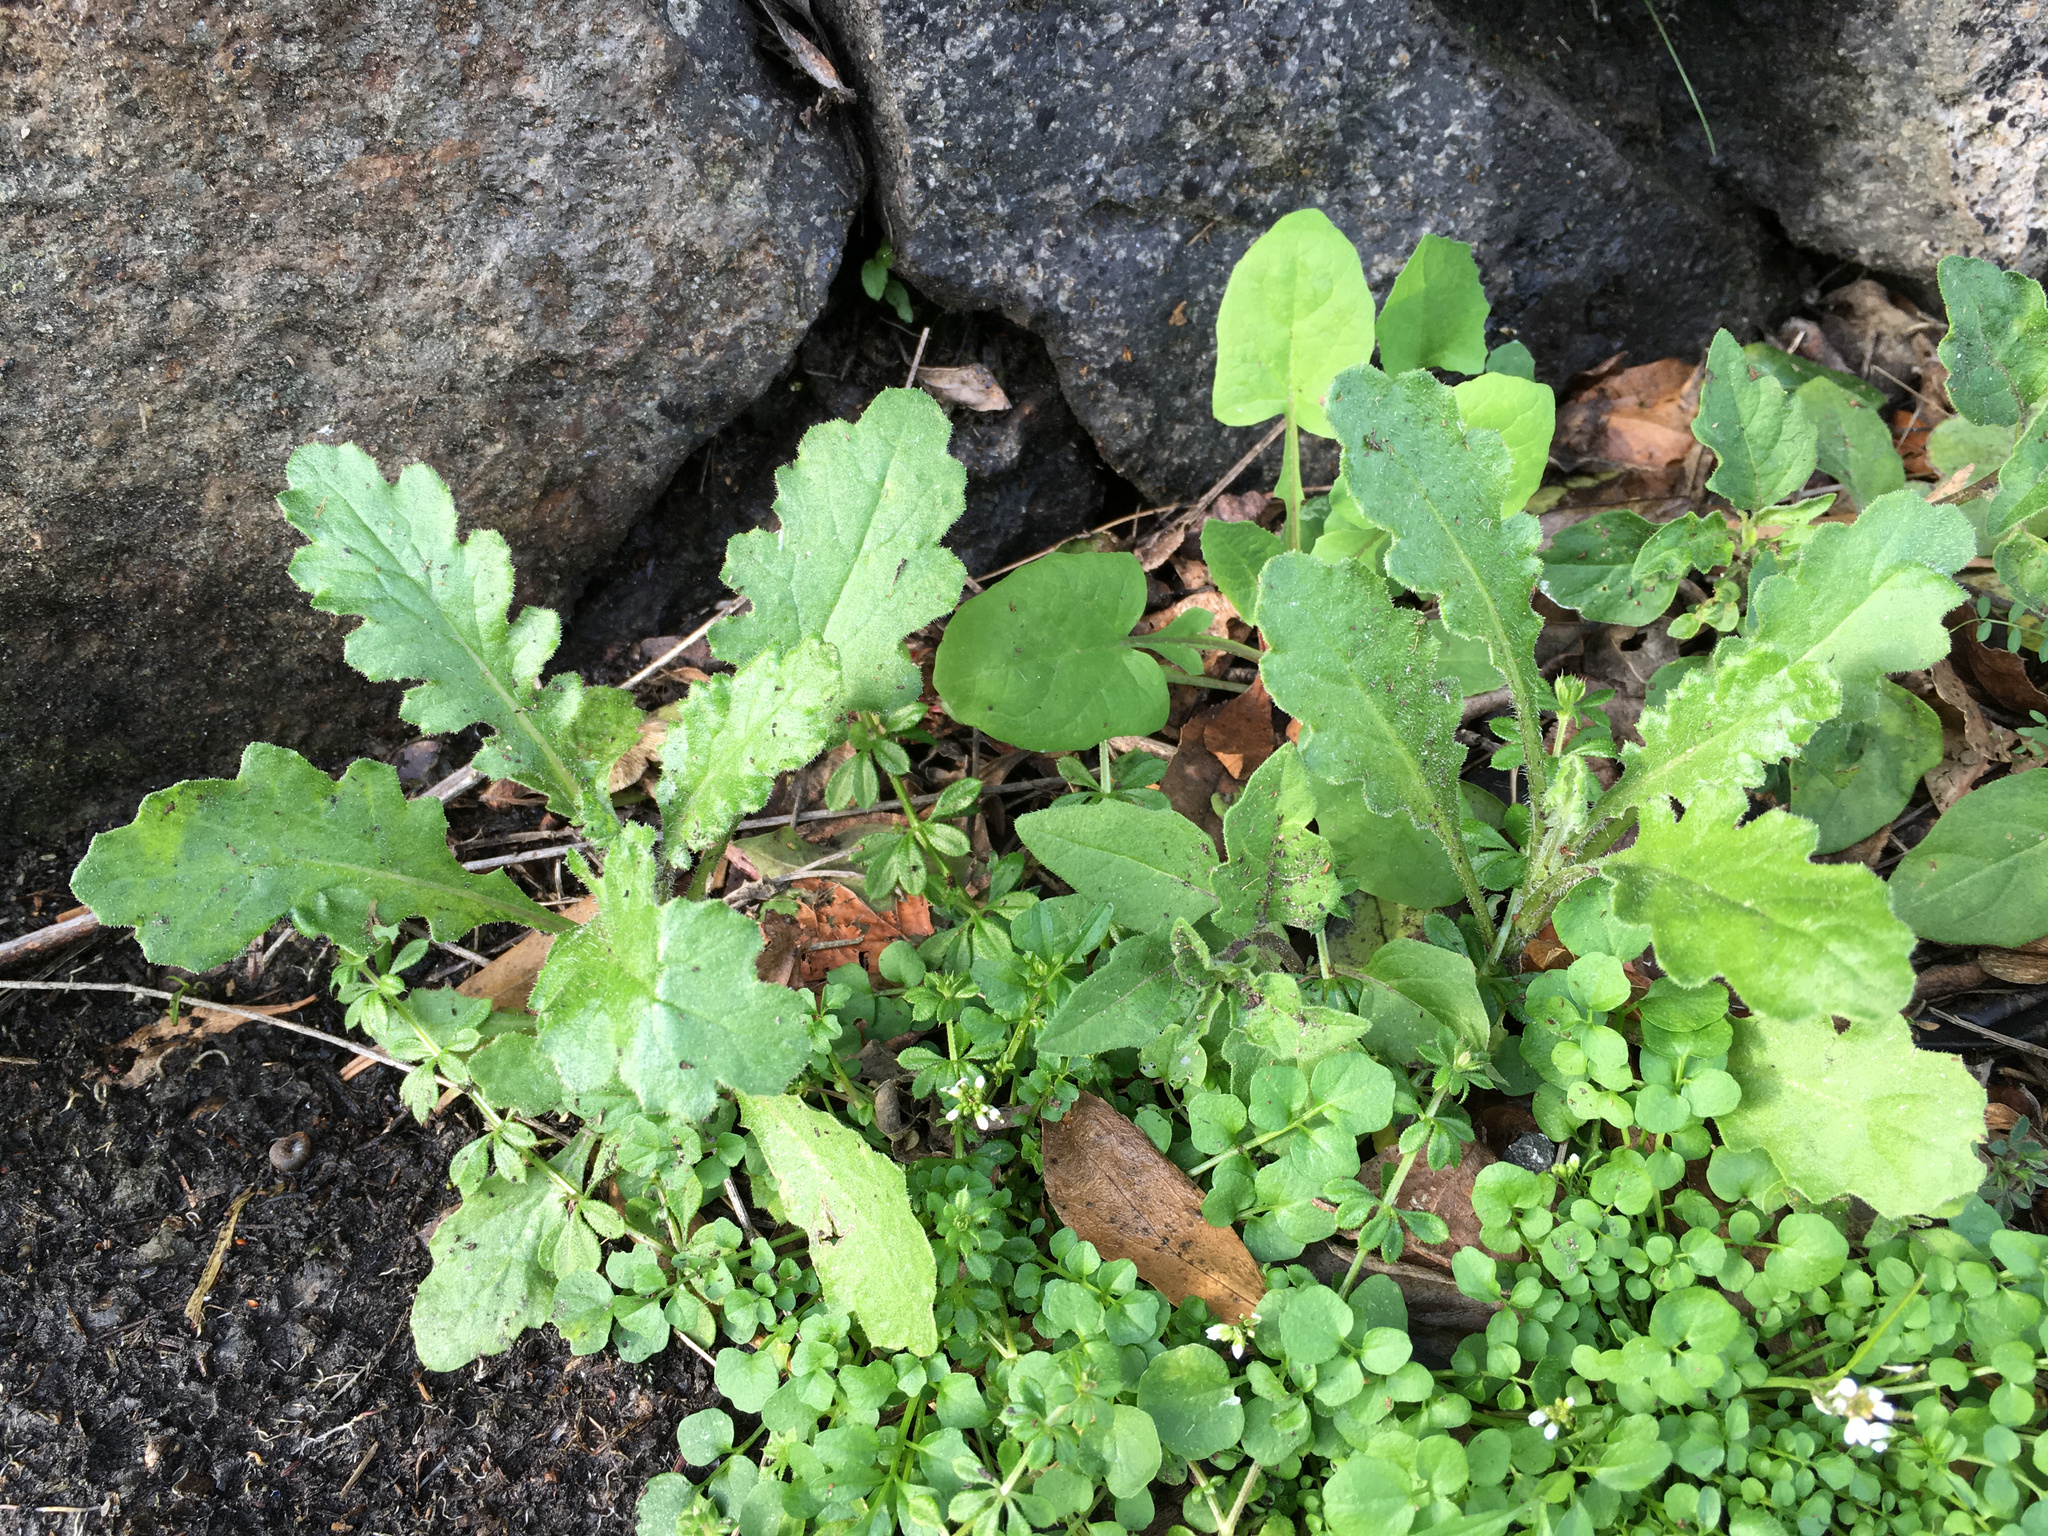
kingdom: Plantae
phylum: Tracheophyta
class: Magnoliopsida
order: Asterales
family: Asteraceae
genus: Senecio
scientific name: Senecio glomeratus
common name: Cutleaf burnweed
